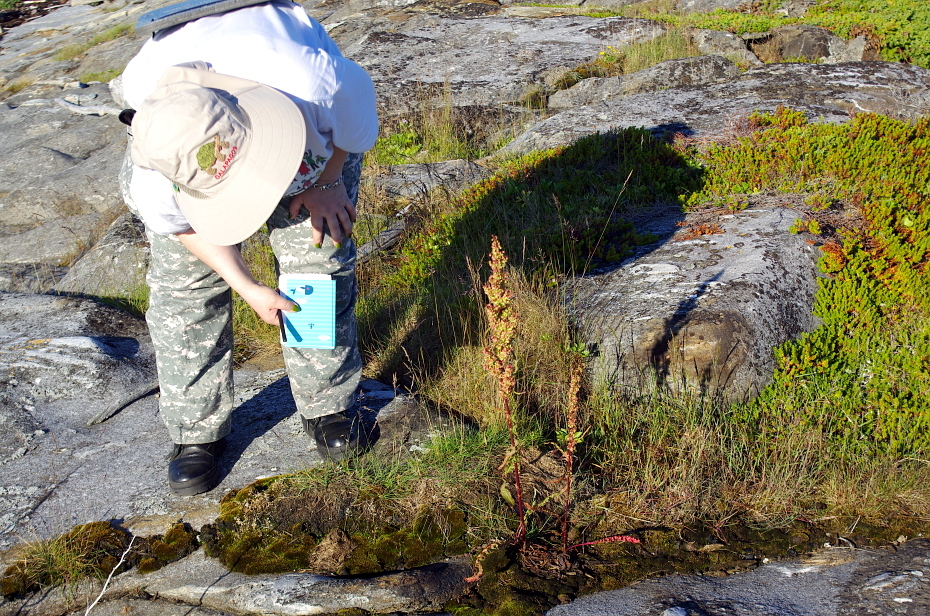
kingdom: Plantae
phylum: Tracheophyta
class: Magnoliopsida
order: Caryophyllales
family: Polygonaceae
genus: Rumex
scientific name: Rumex pseudonatronatus
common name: Field dock
